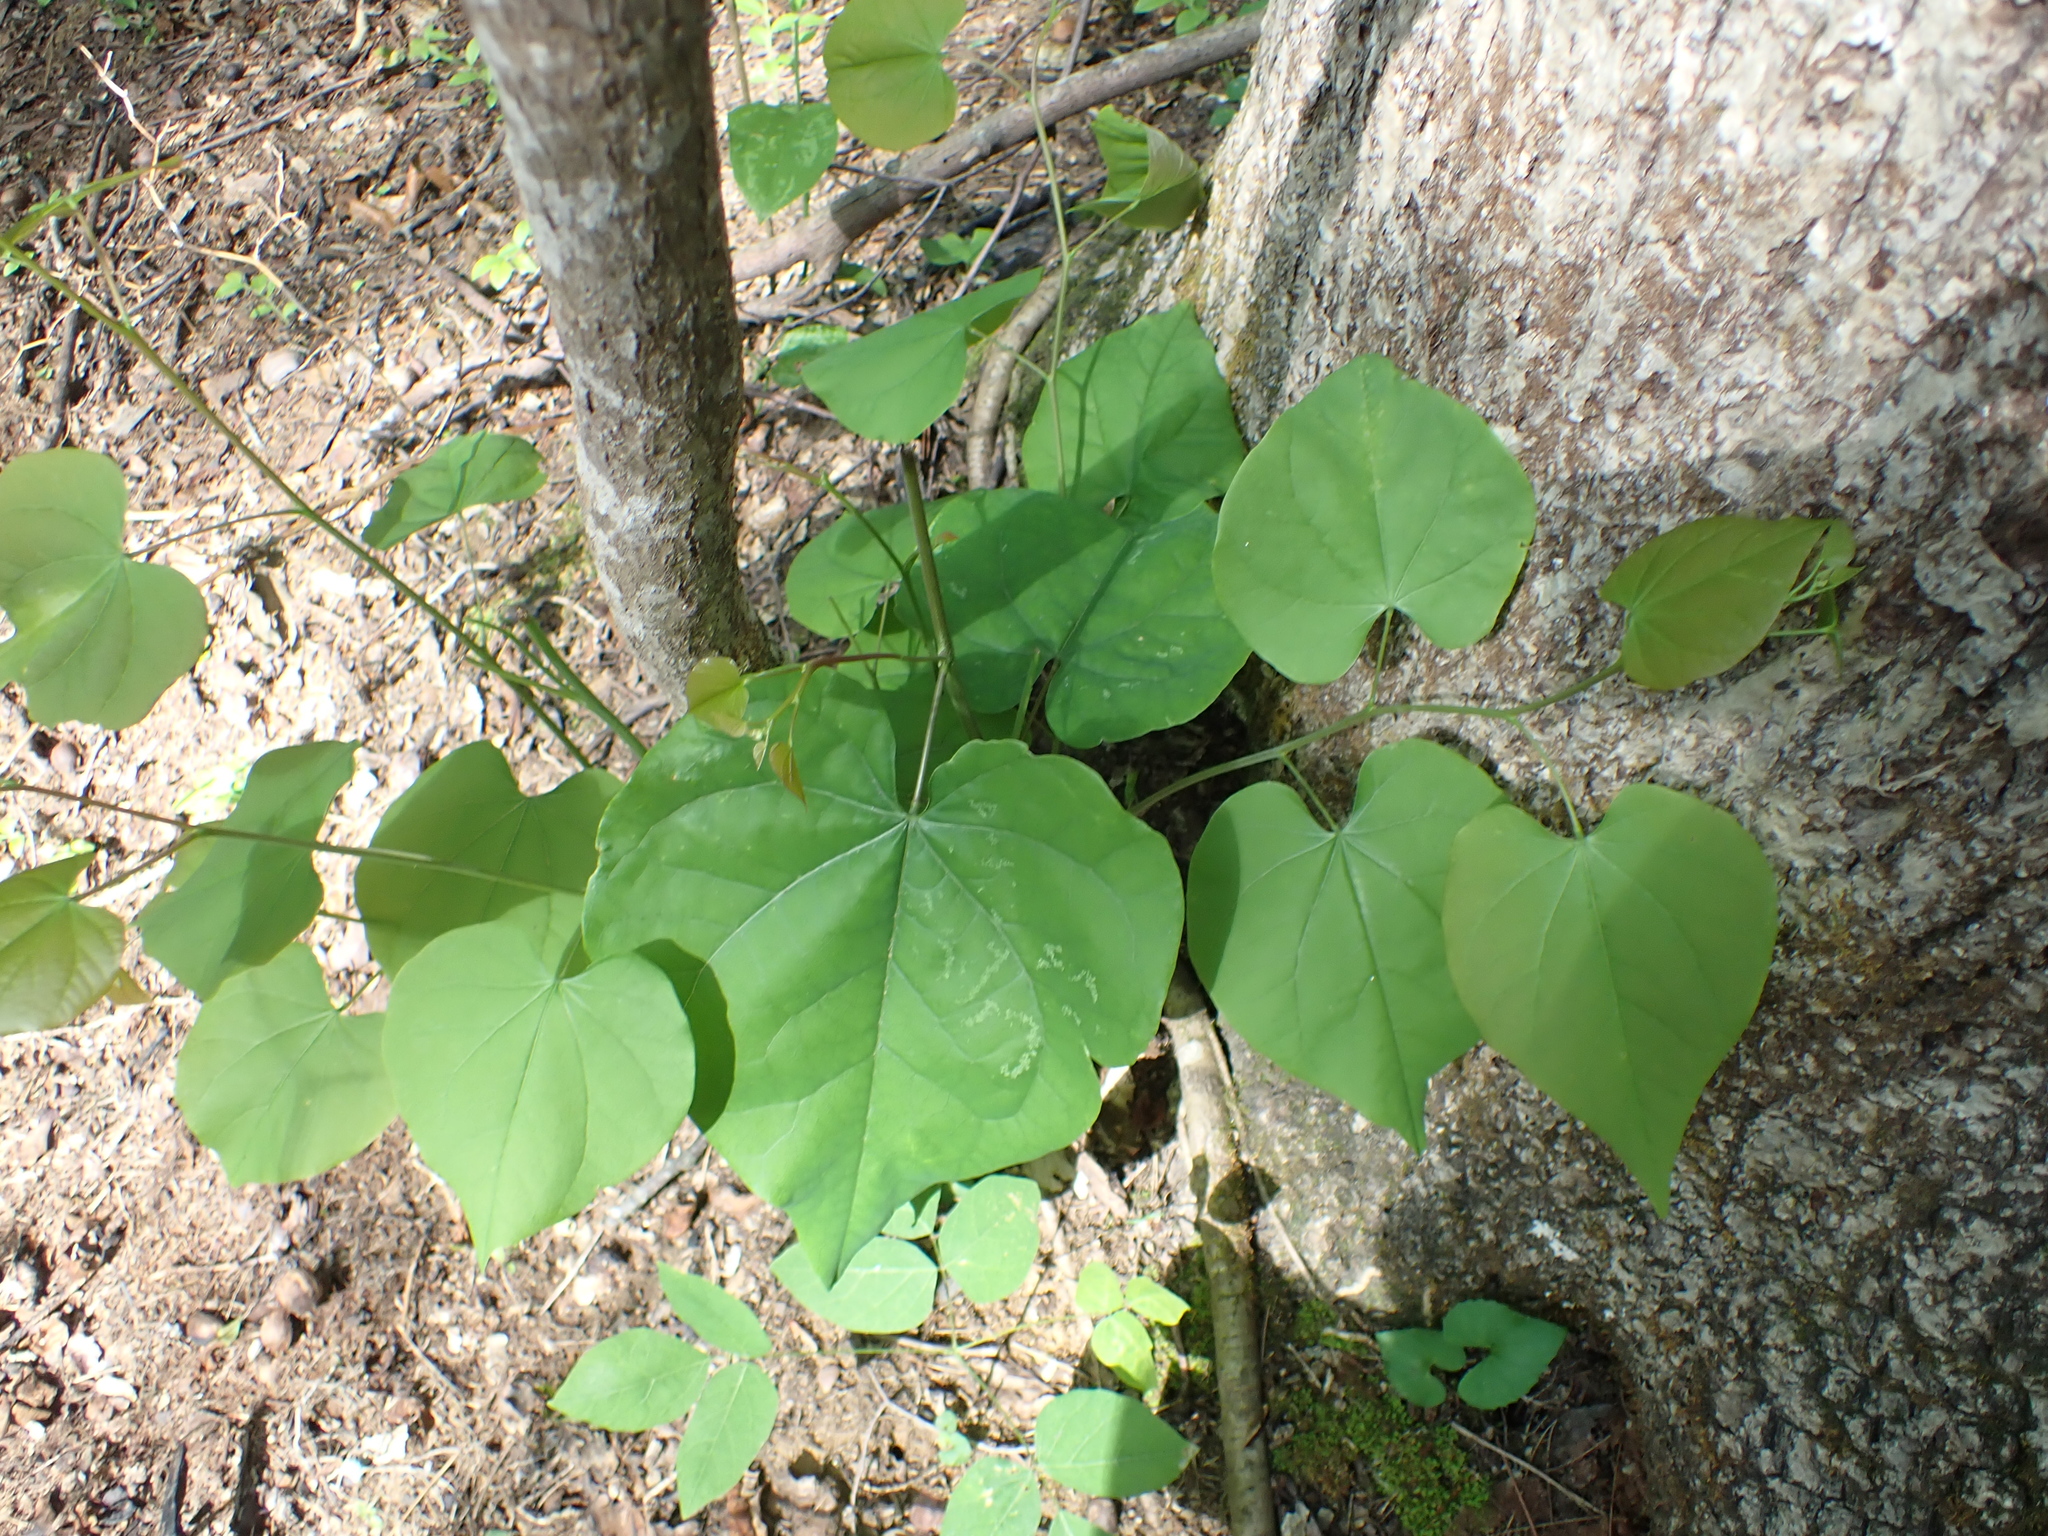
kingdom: Plantae
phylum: Tracheophyta
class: Magnoliopsida
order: Fabales
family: Fabaceae
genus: Cercis
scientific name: Cercis canadensis
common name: Eastern redbud
